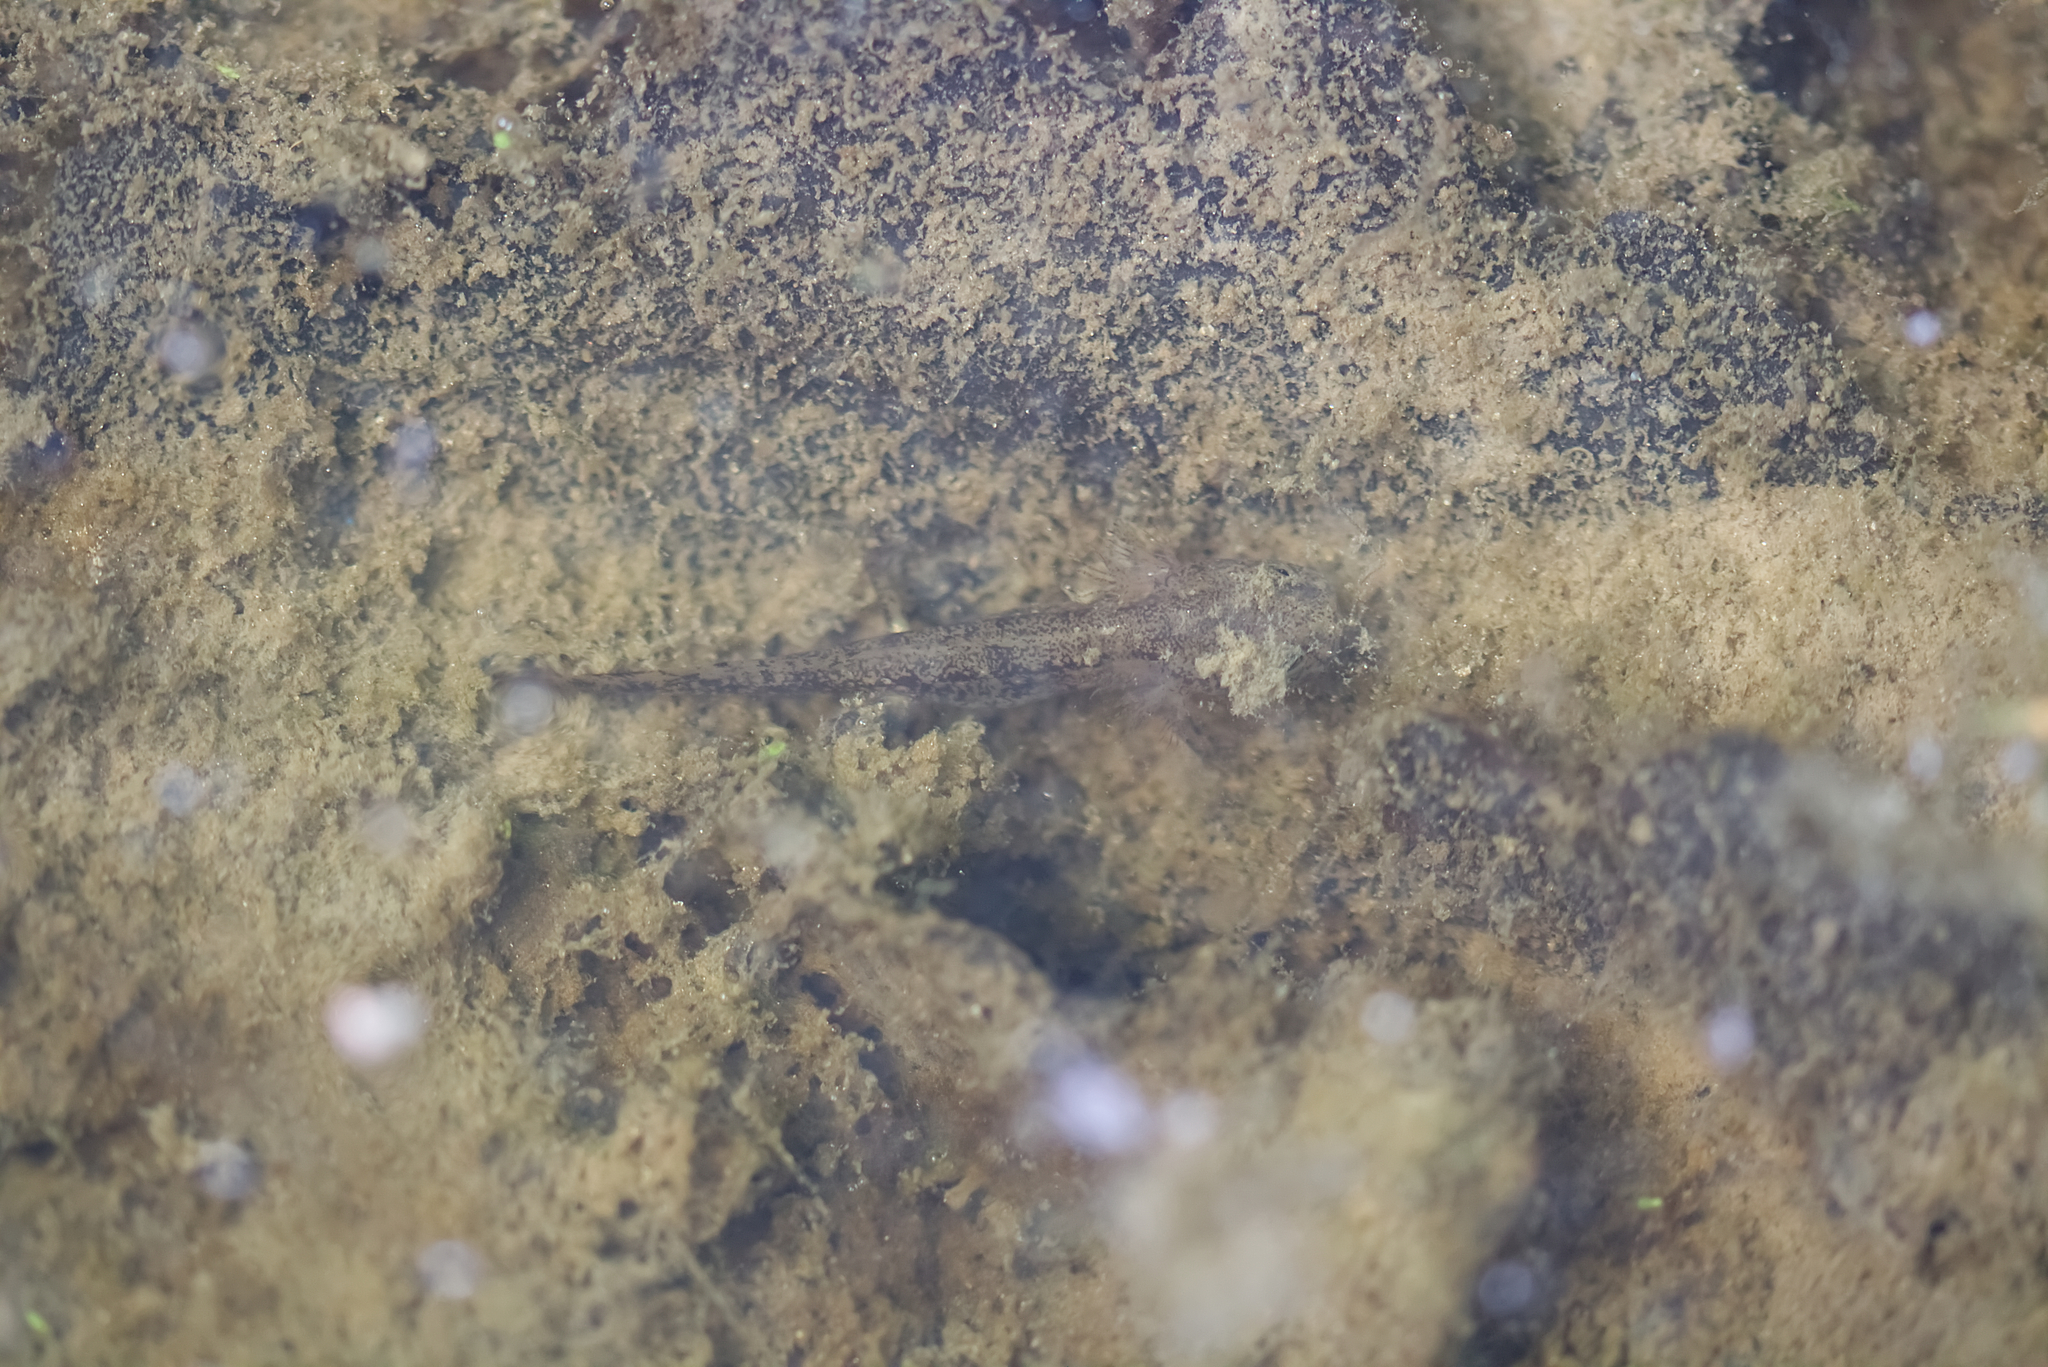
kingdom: Animalia
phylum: Chordata
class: Amphibia
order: Caudata
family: Salamandridae
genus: Salamandra
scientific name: Salamandra salamandra
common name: Fire salamander
